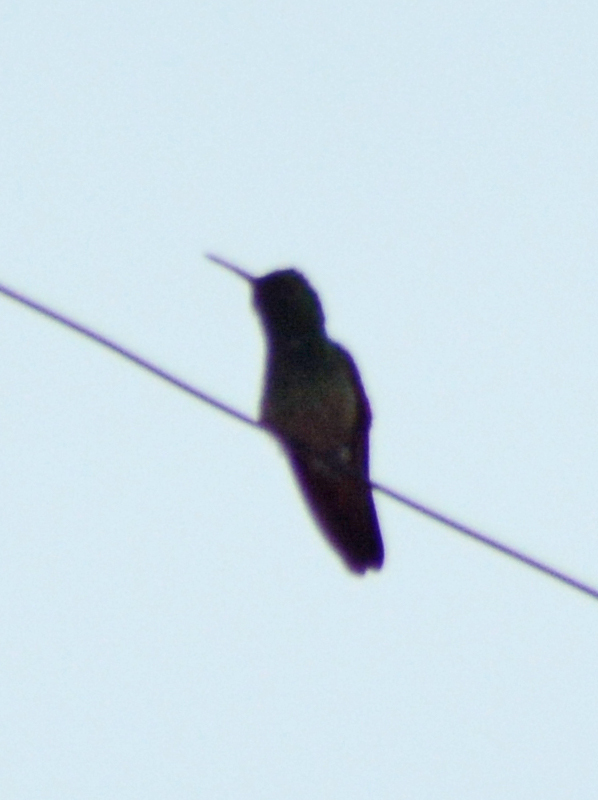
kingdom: Animalia
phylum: Chordata
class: Aves
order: Apodiformes
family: Trochilidae
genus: Saucerottia
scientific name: Saucerottia beryllina
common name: Berylline hummingbird
